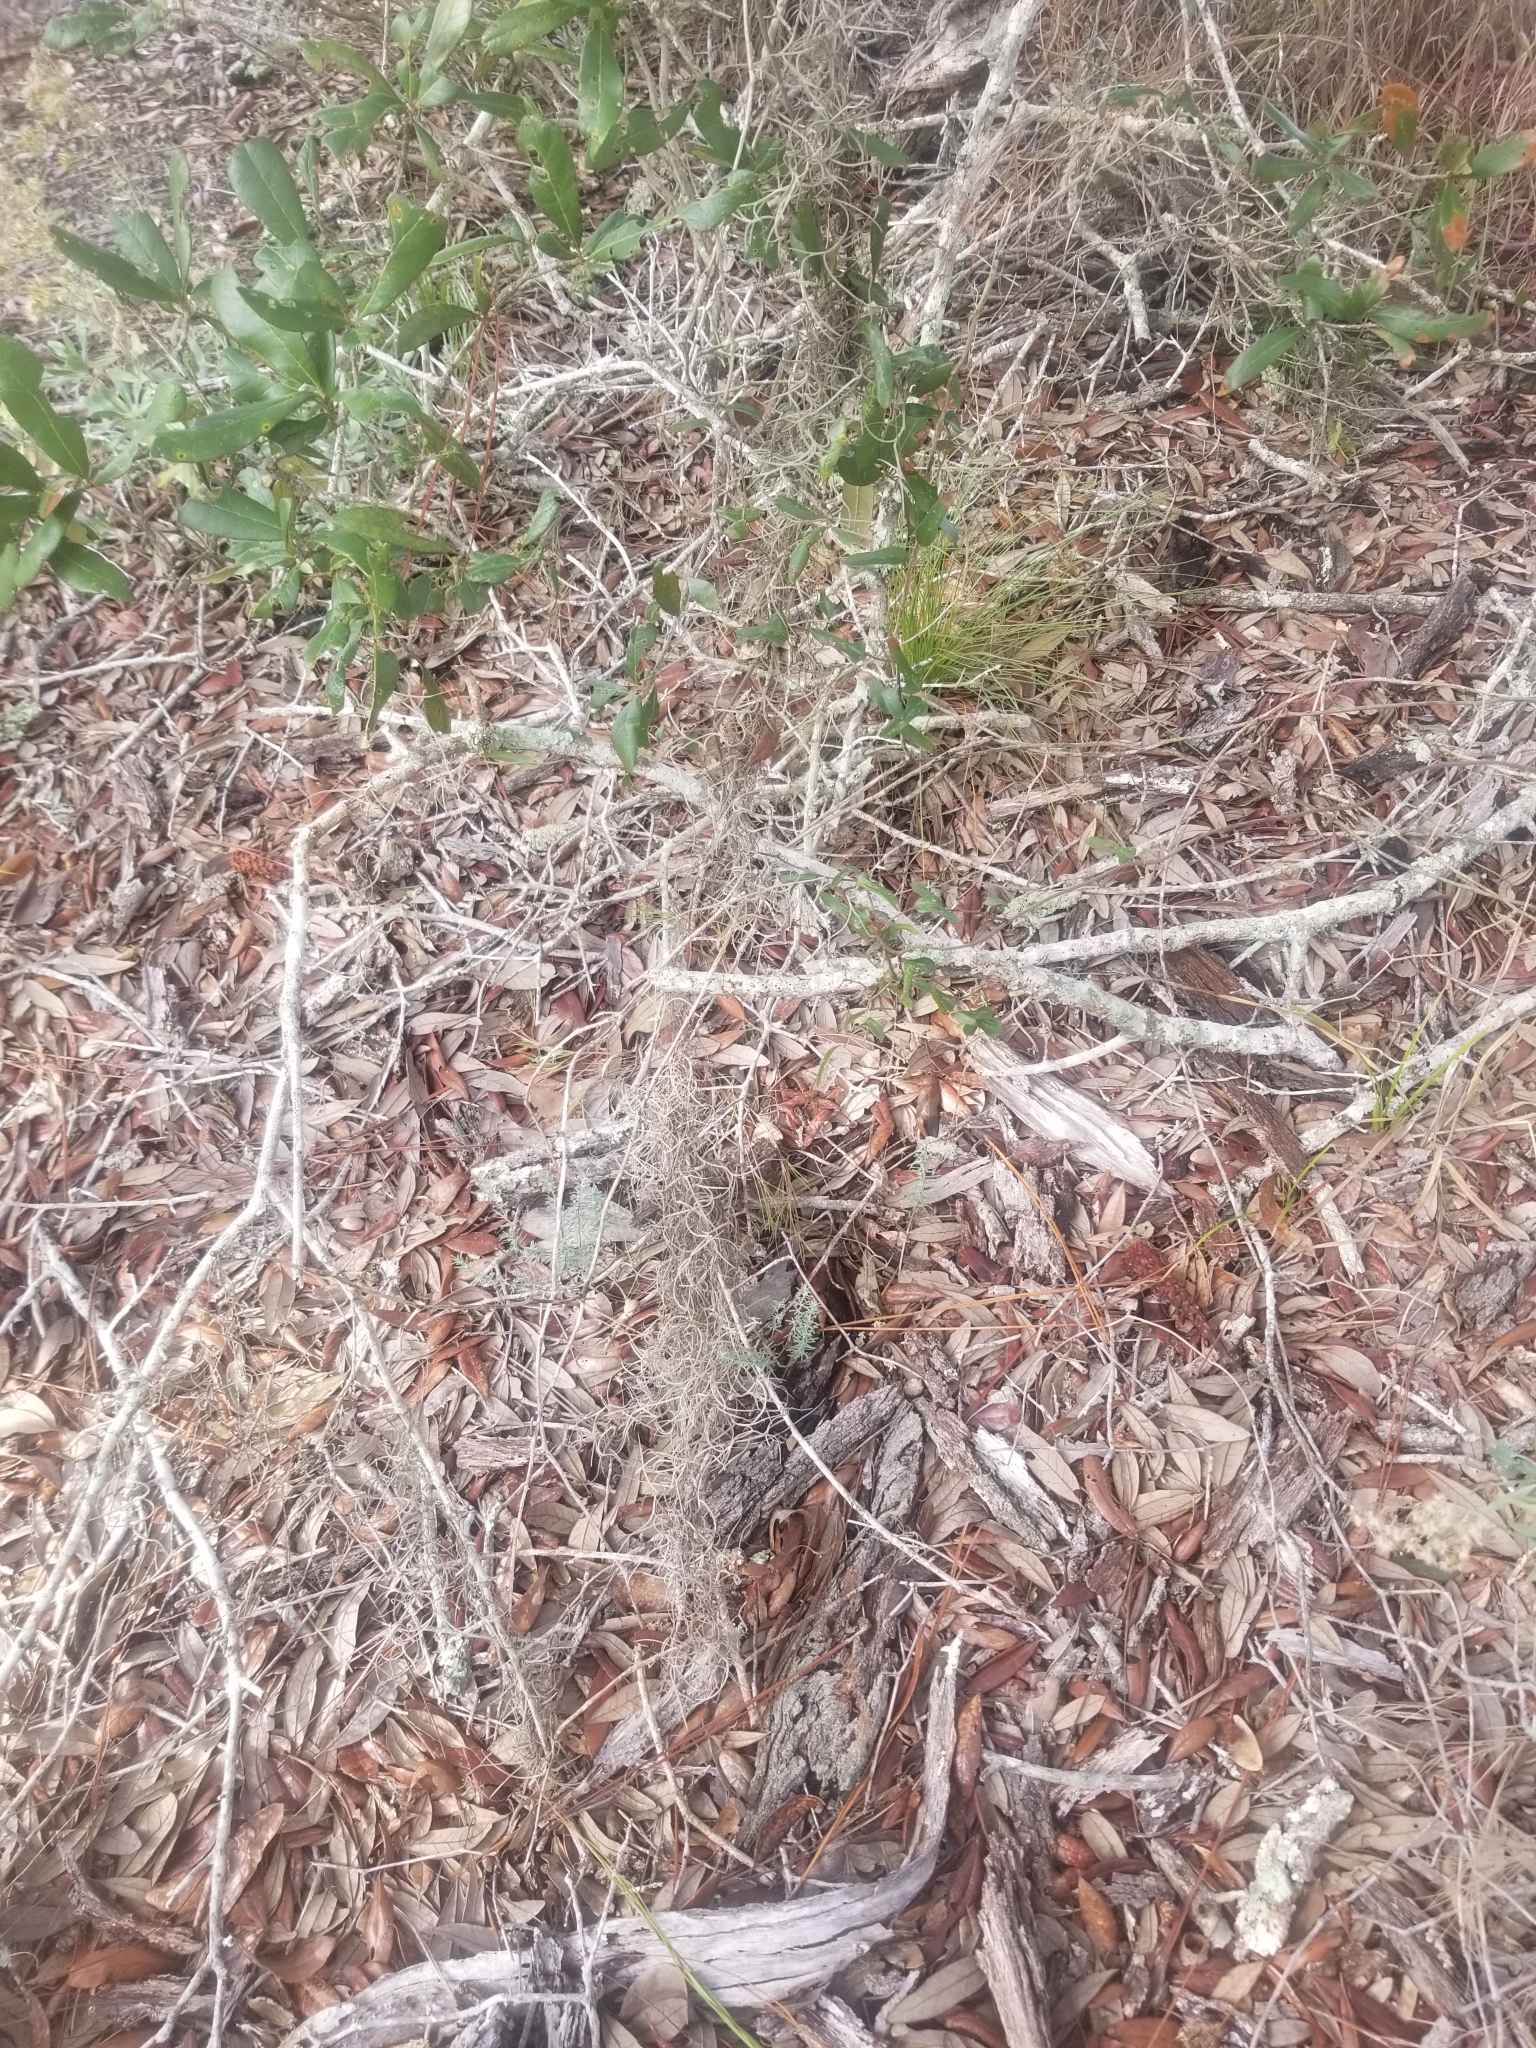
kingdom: Plantae
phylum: Tracheophyta
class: Liliopsida
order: Poales
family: Bromeliaceae
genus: Tillandsia
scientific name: Tillandsia usneoides
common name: Spanish moss
